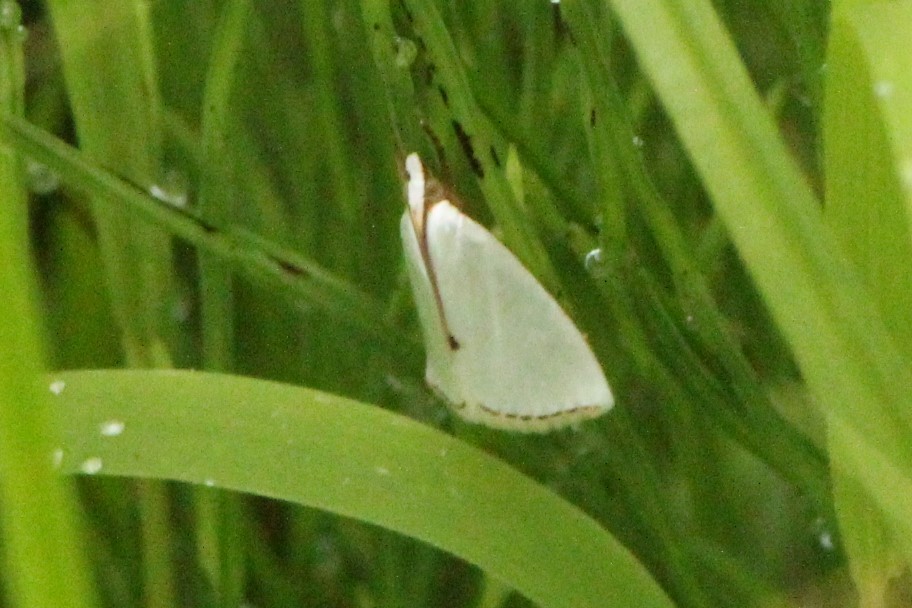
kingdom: Animalia
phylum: Arthropoda
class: Insecta
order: Lepidoptera
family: Crambidae
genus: Argyria
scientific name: Argyria nivalis
